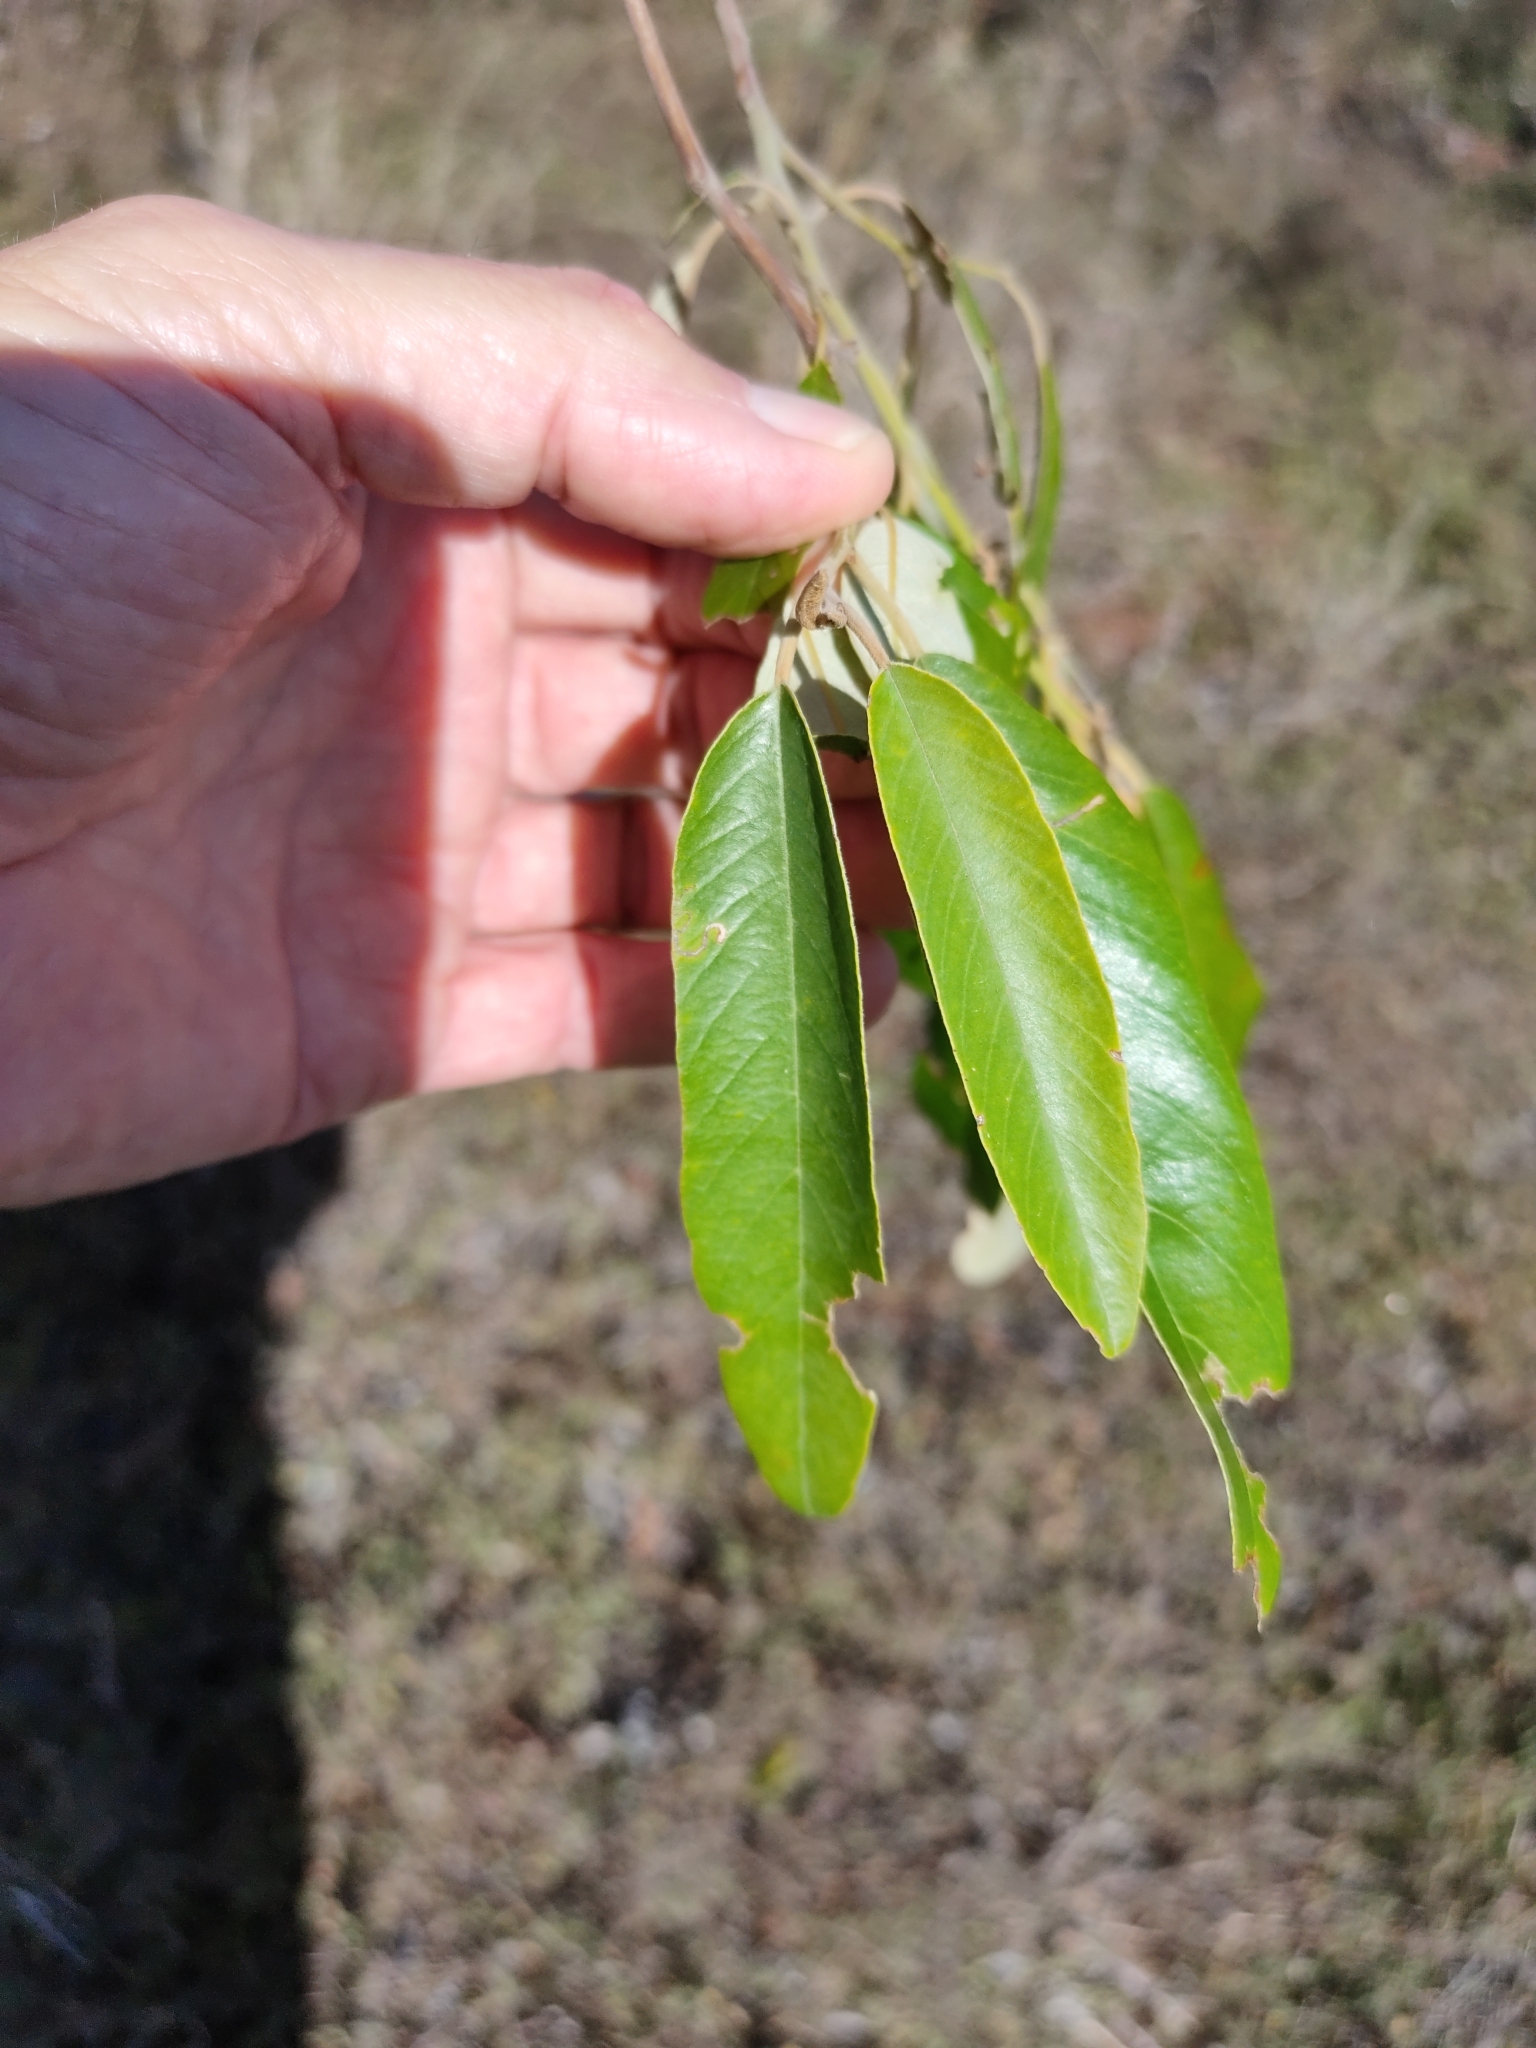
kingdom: Plantae
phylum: Tracheophyta
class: Magnoliopsida
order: Rosales
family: Rhamnaceae
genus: Alphitonia
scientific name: Alphitonia excelsa
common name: Red ash
